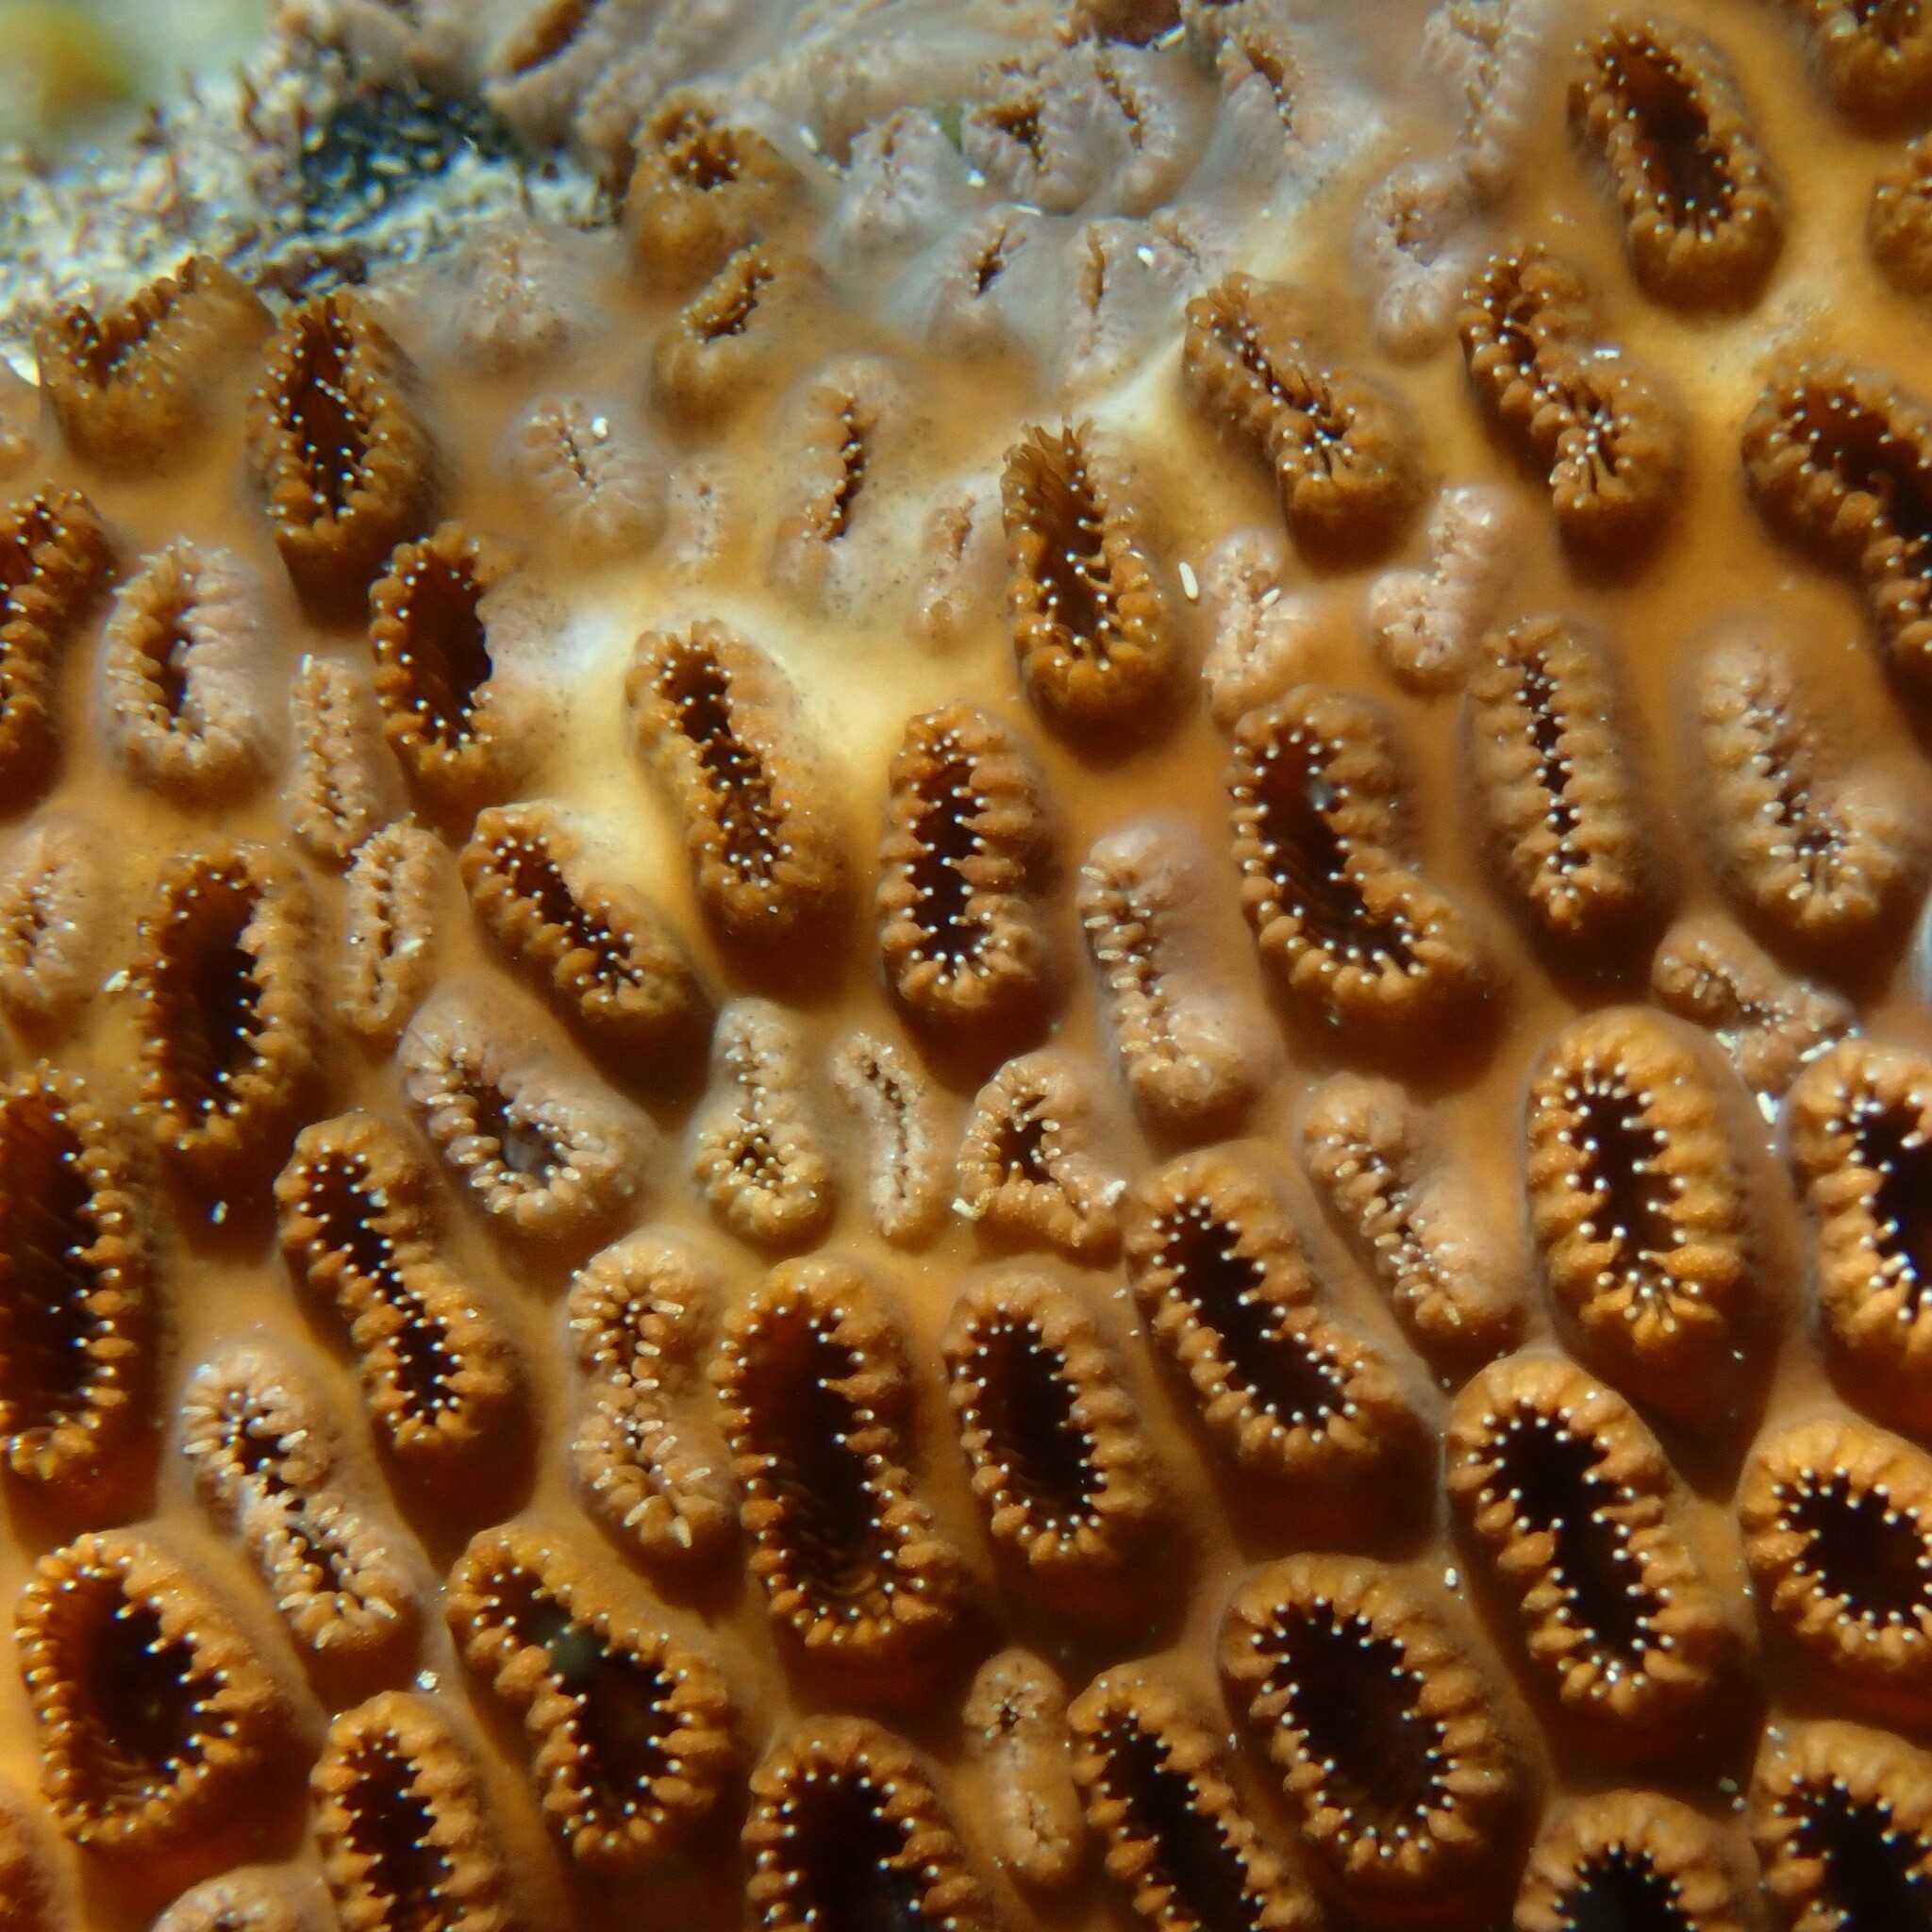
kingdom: Animalia
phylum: Cnidaria
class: Anthozoa
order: Zoantharia
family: Sphenopidae
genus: Palythoa
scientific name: Palythoa tuberculosa
